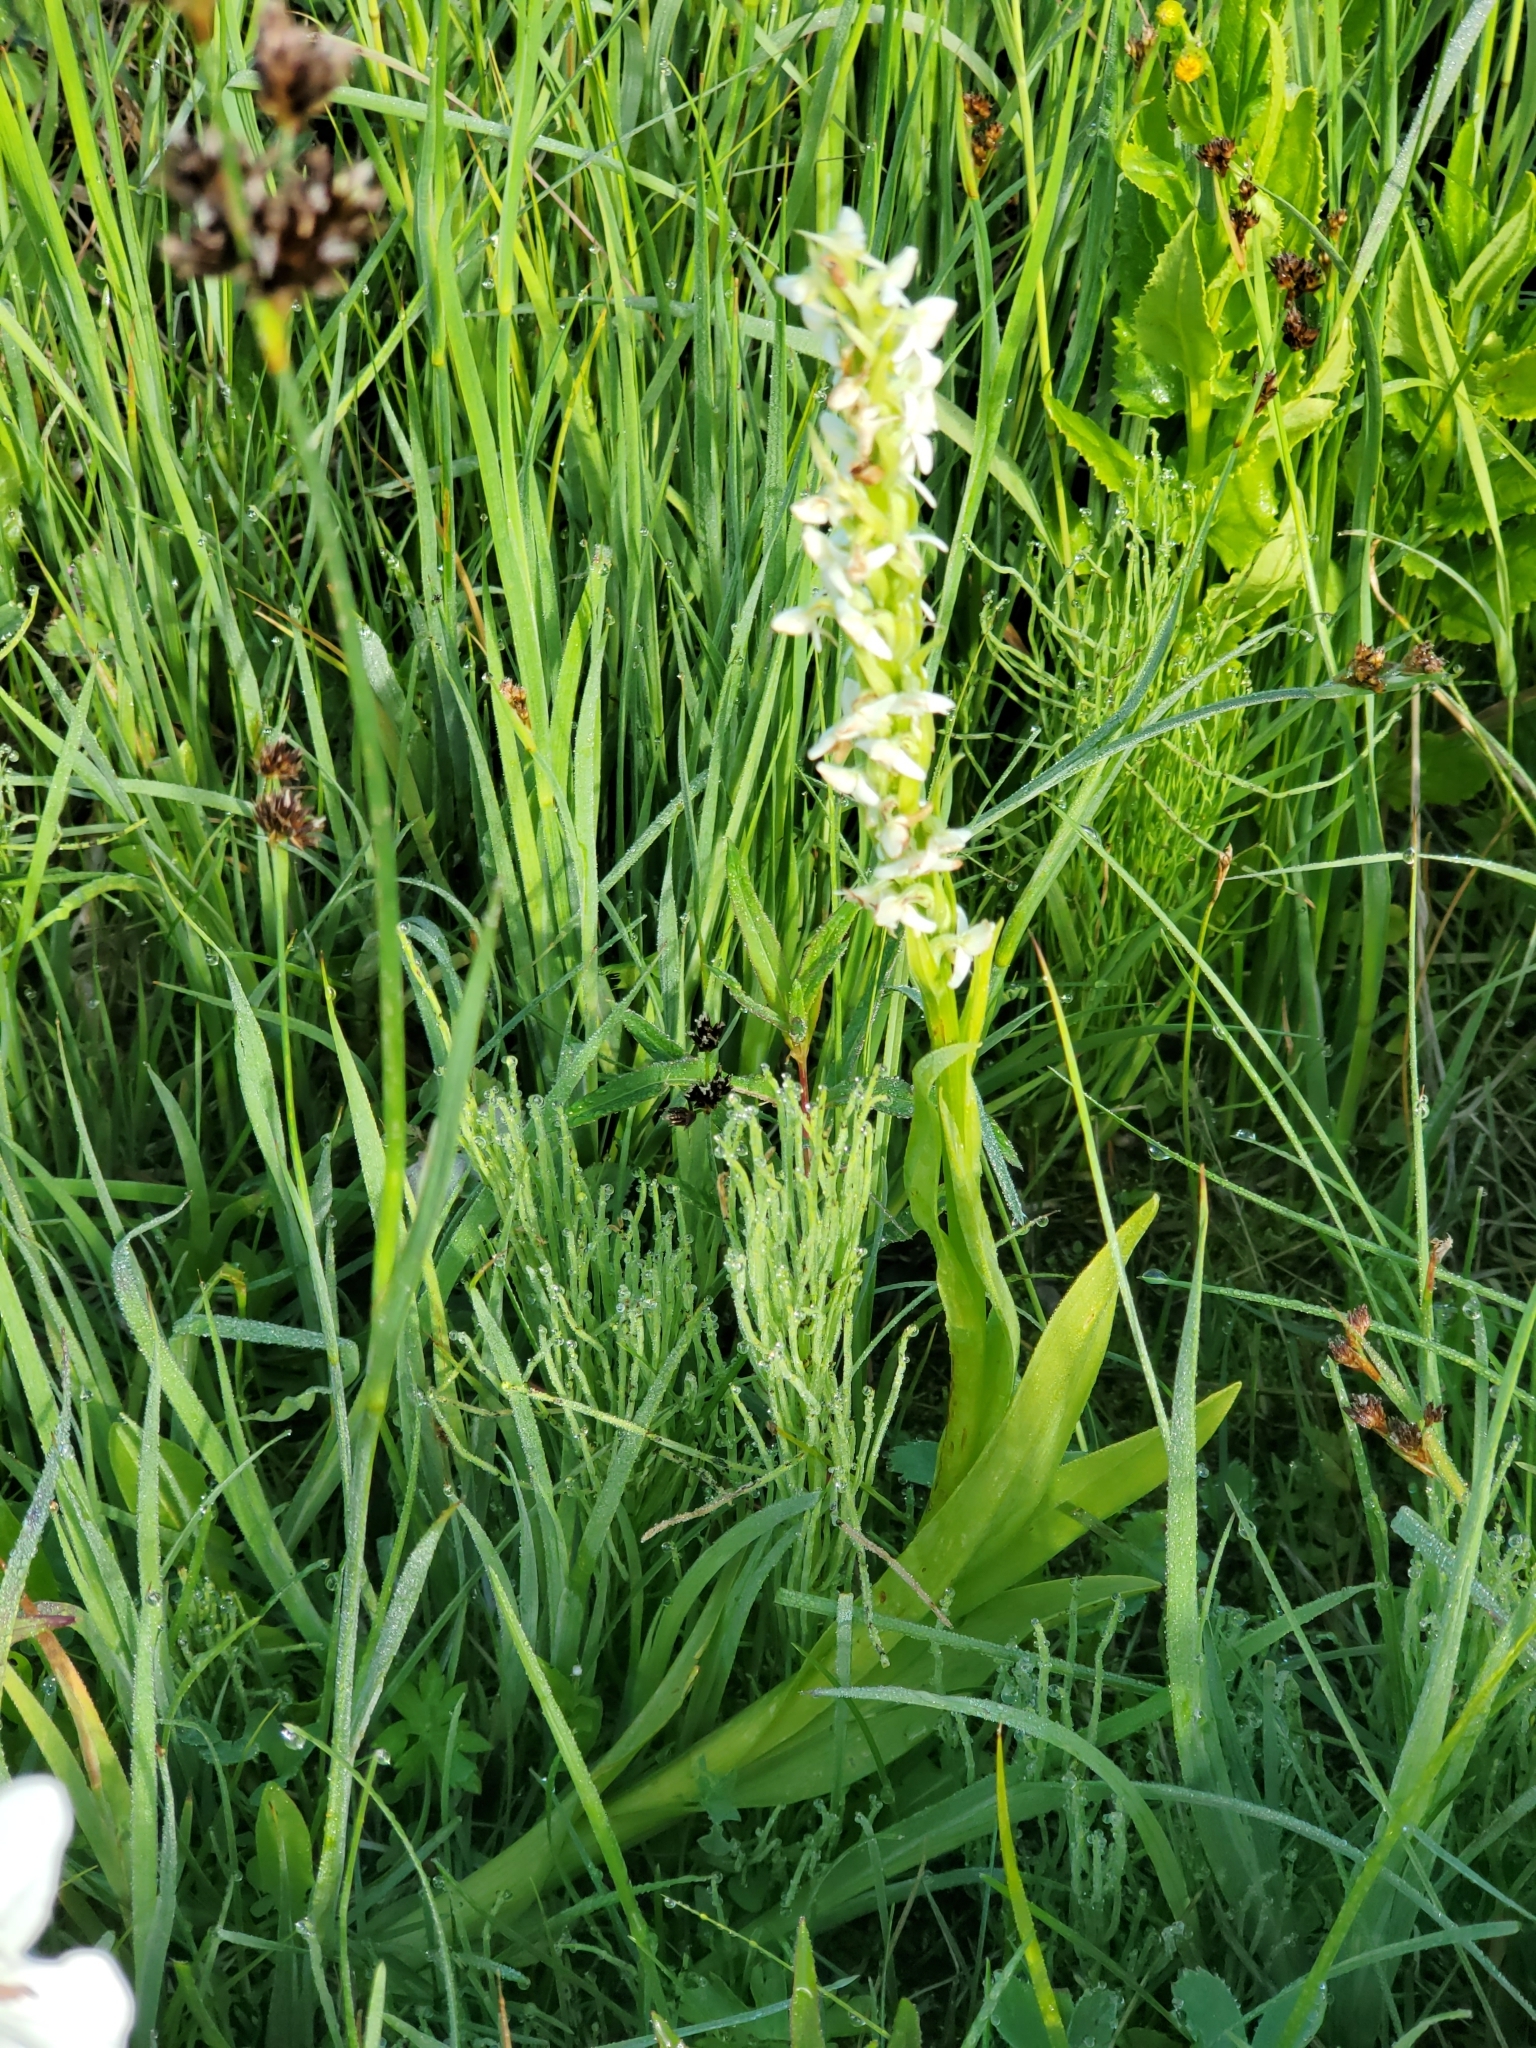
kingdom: Plantae
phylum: Tracheophyta
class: Liliopsida
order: Asparagales
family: Orchidaceae
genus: Platanthera
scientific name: Platanthera dilatata
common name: Bog candles
